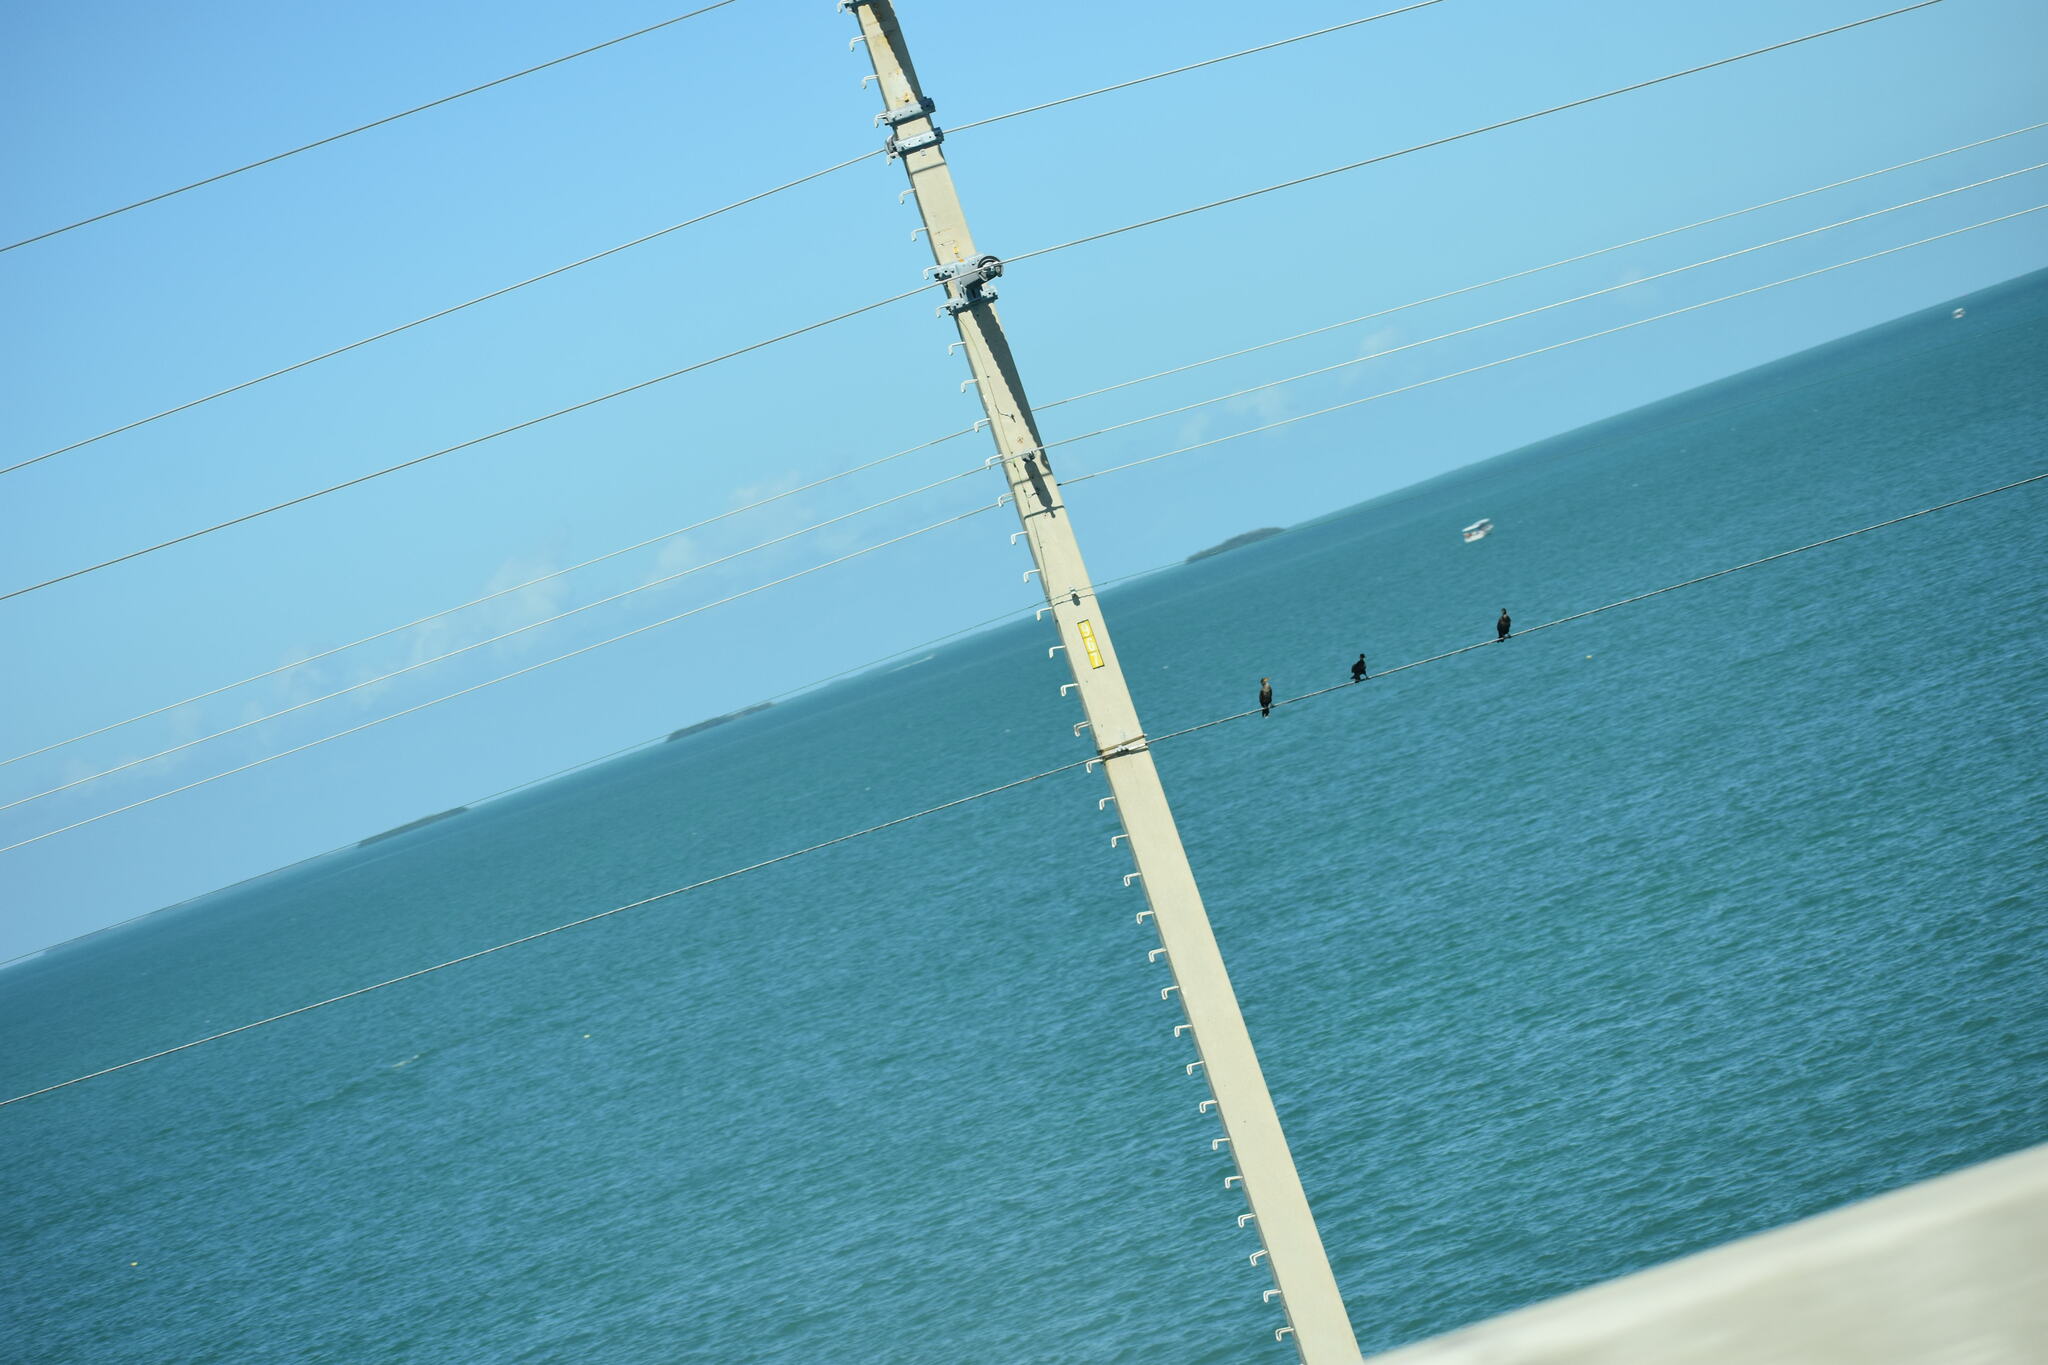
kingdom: Animalia
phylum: Chordata
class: Aves
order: Suliformes
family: Phalacrocoracidae
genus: Phalacrocorax
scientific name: Phalacrocorax auritus
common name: Double-crested cormorant
